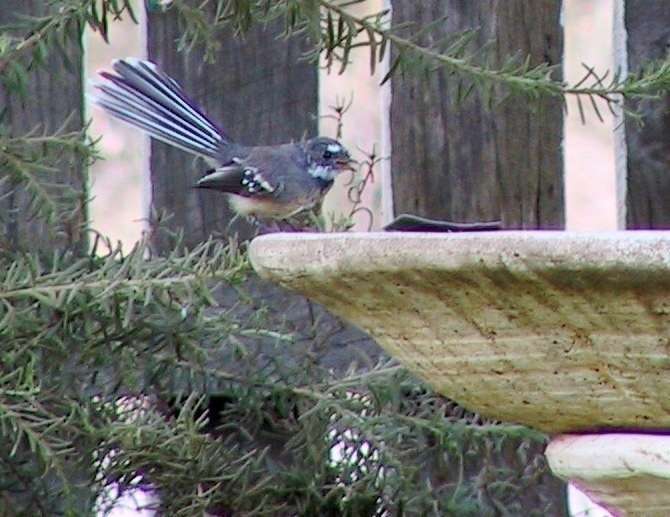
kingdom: Animalia
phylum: Chordata
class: Aves
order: Passeriformes
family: Rhipiduridae
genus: Rhipidura
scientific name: Rhipidura albiscapa
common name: Grey fantail
